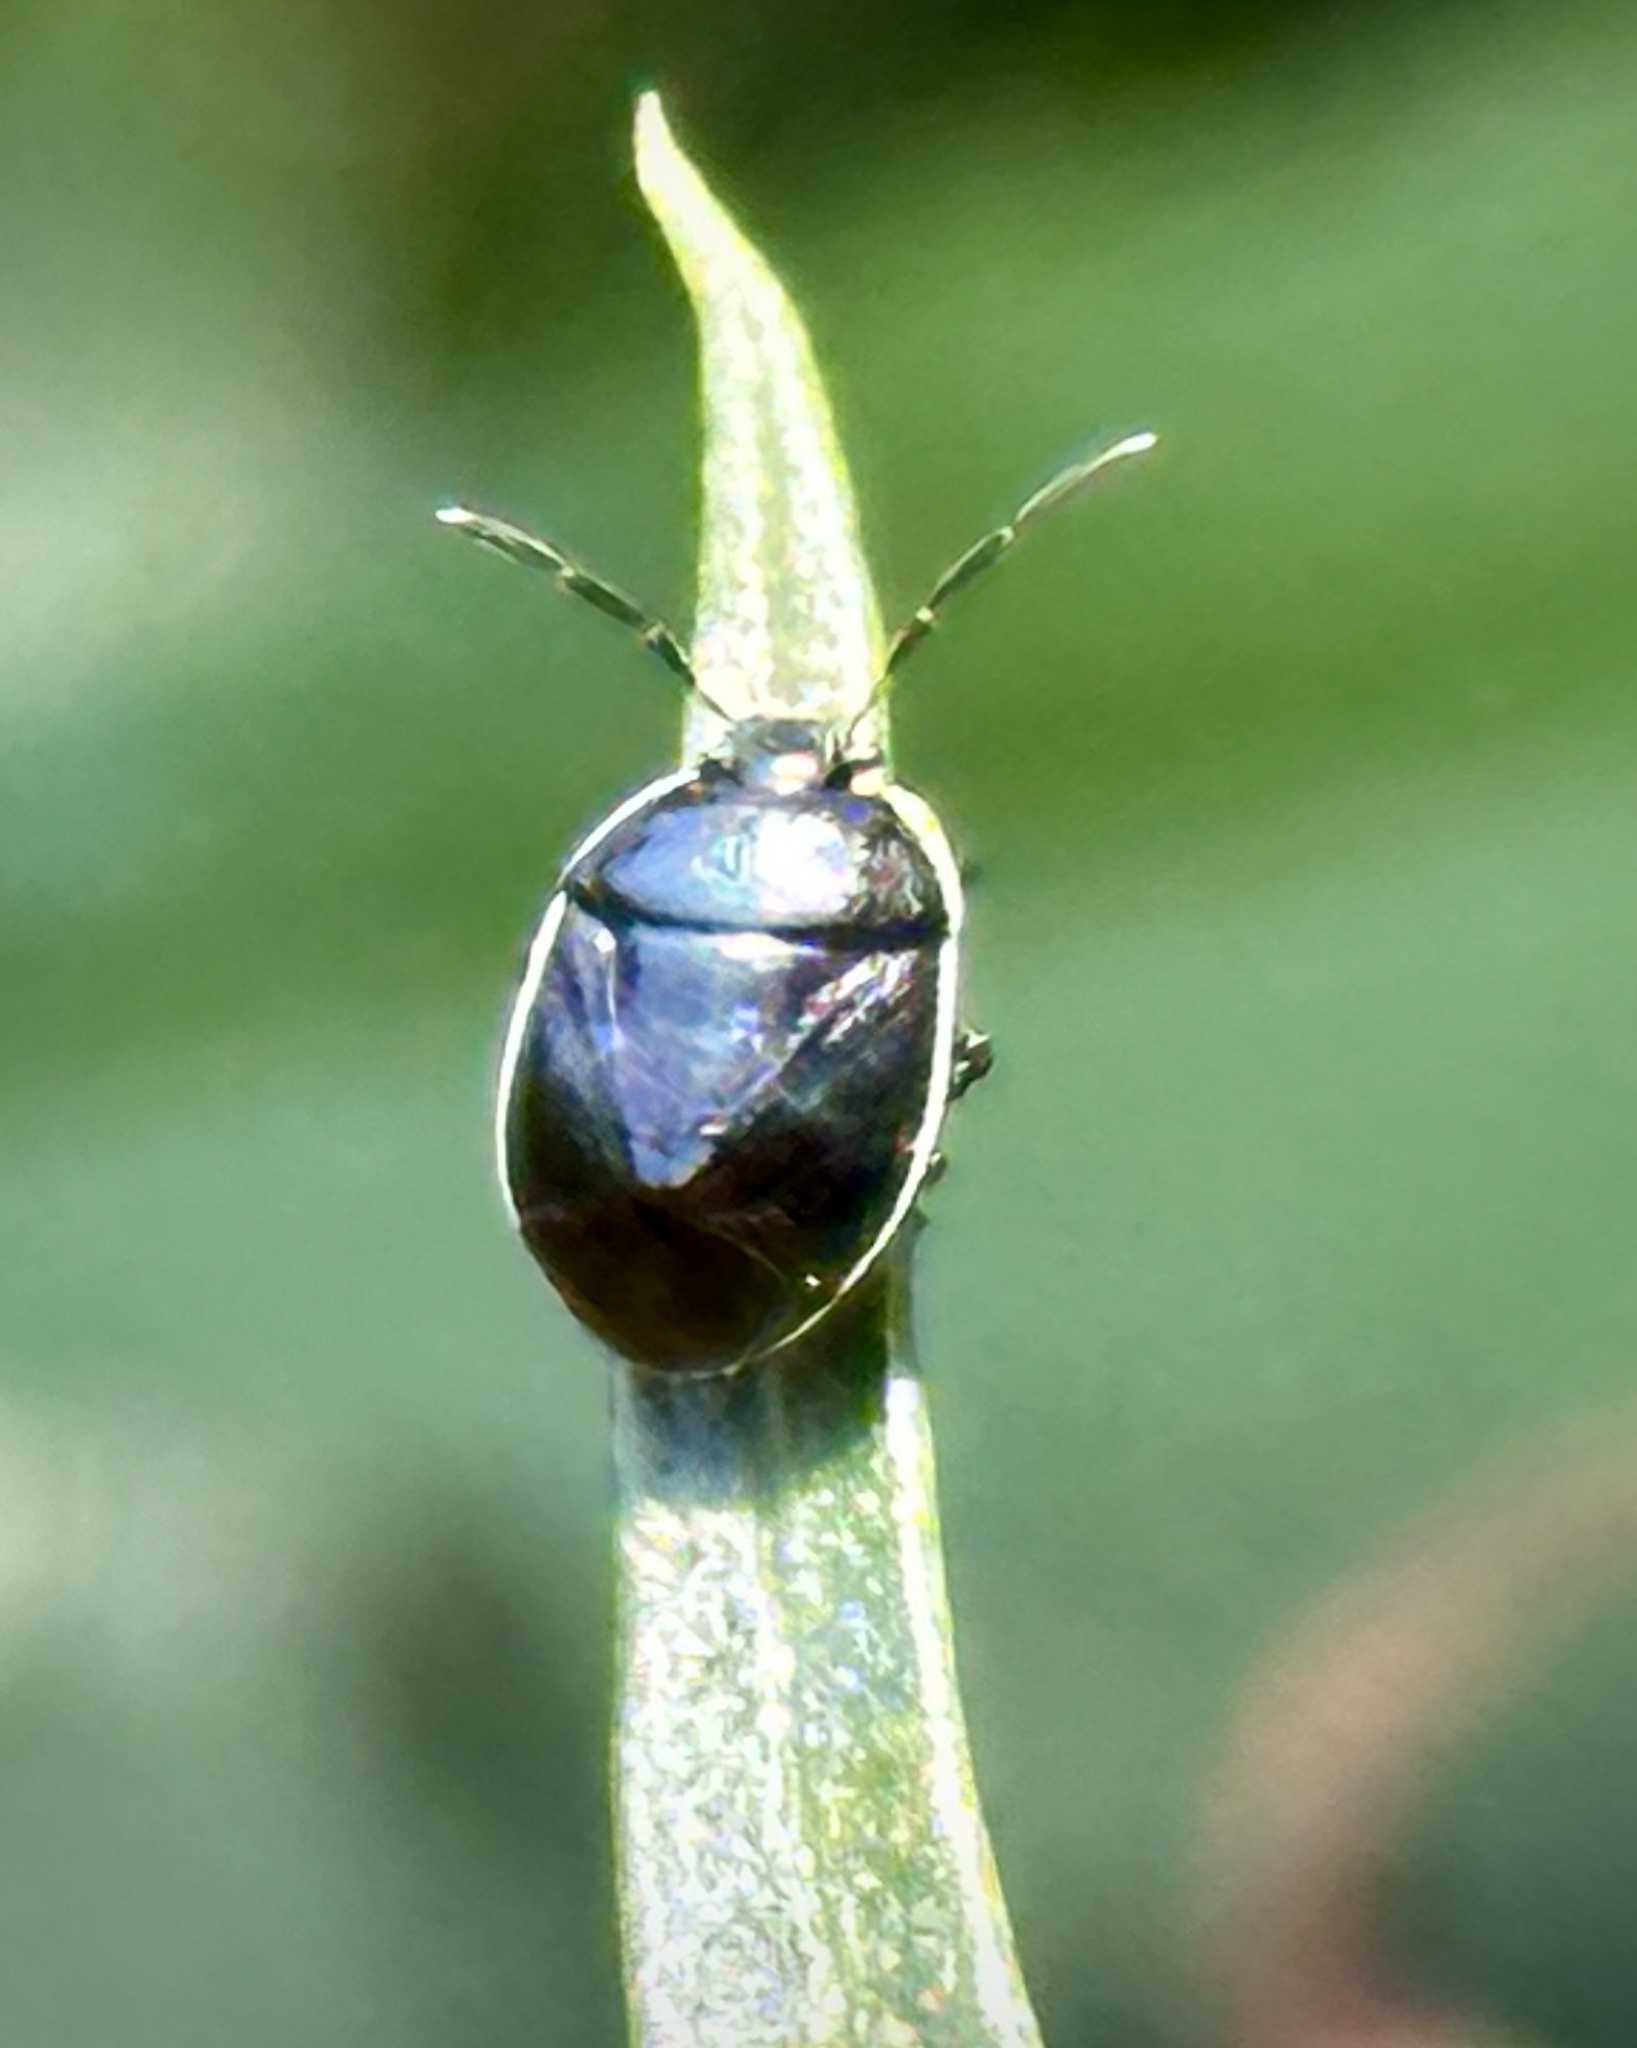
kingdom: Animalia
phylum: Arthropoda
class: Insecta
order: Hemiptera
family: Cydnidae
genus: Sehirus
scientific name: Sehirus cinctus
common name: White-margined burrower bug
